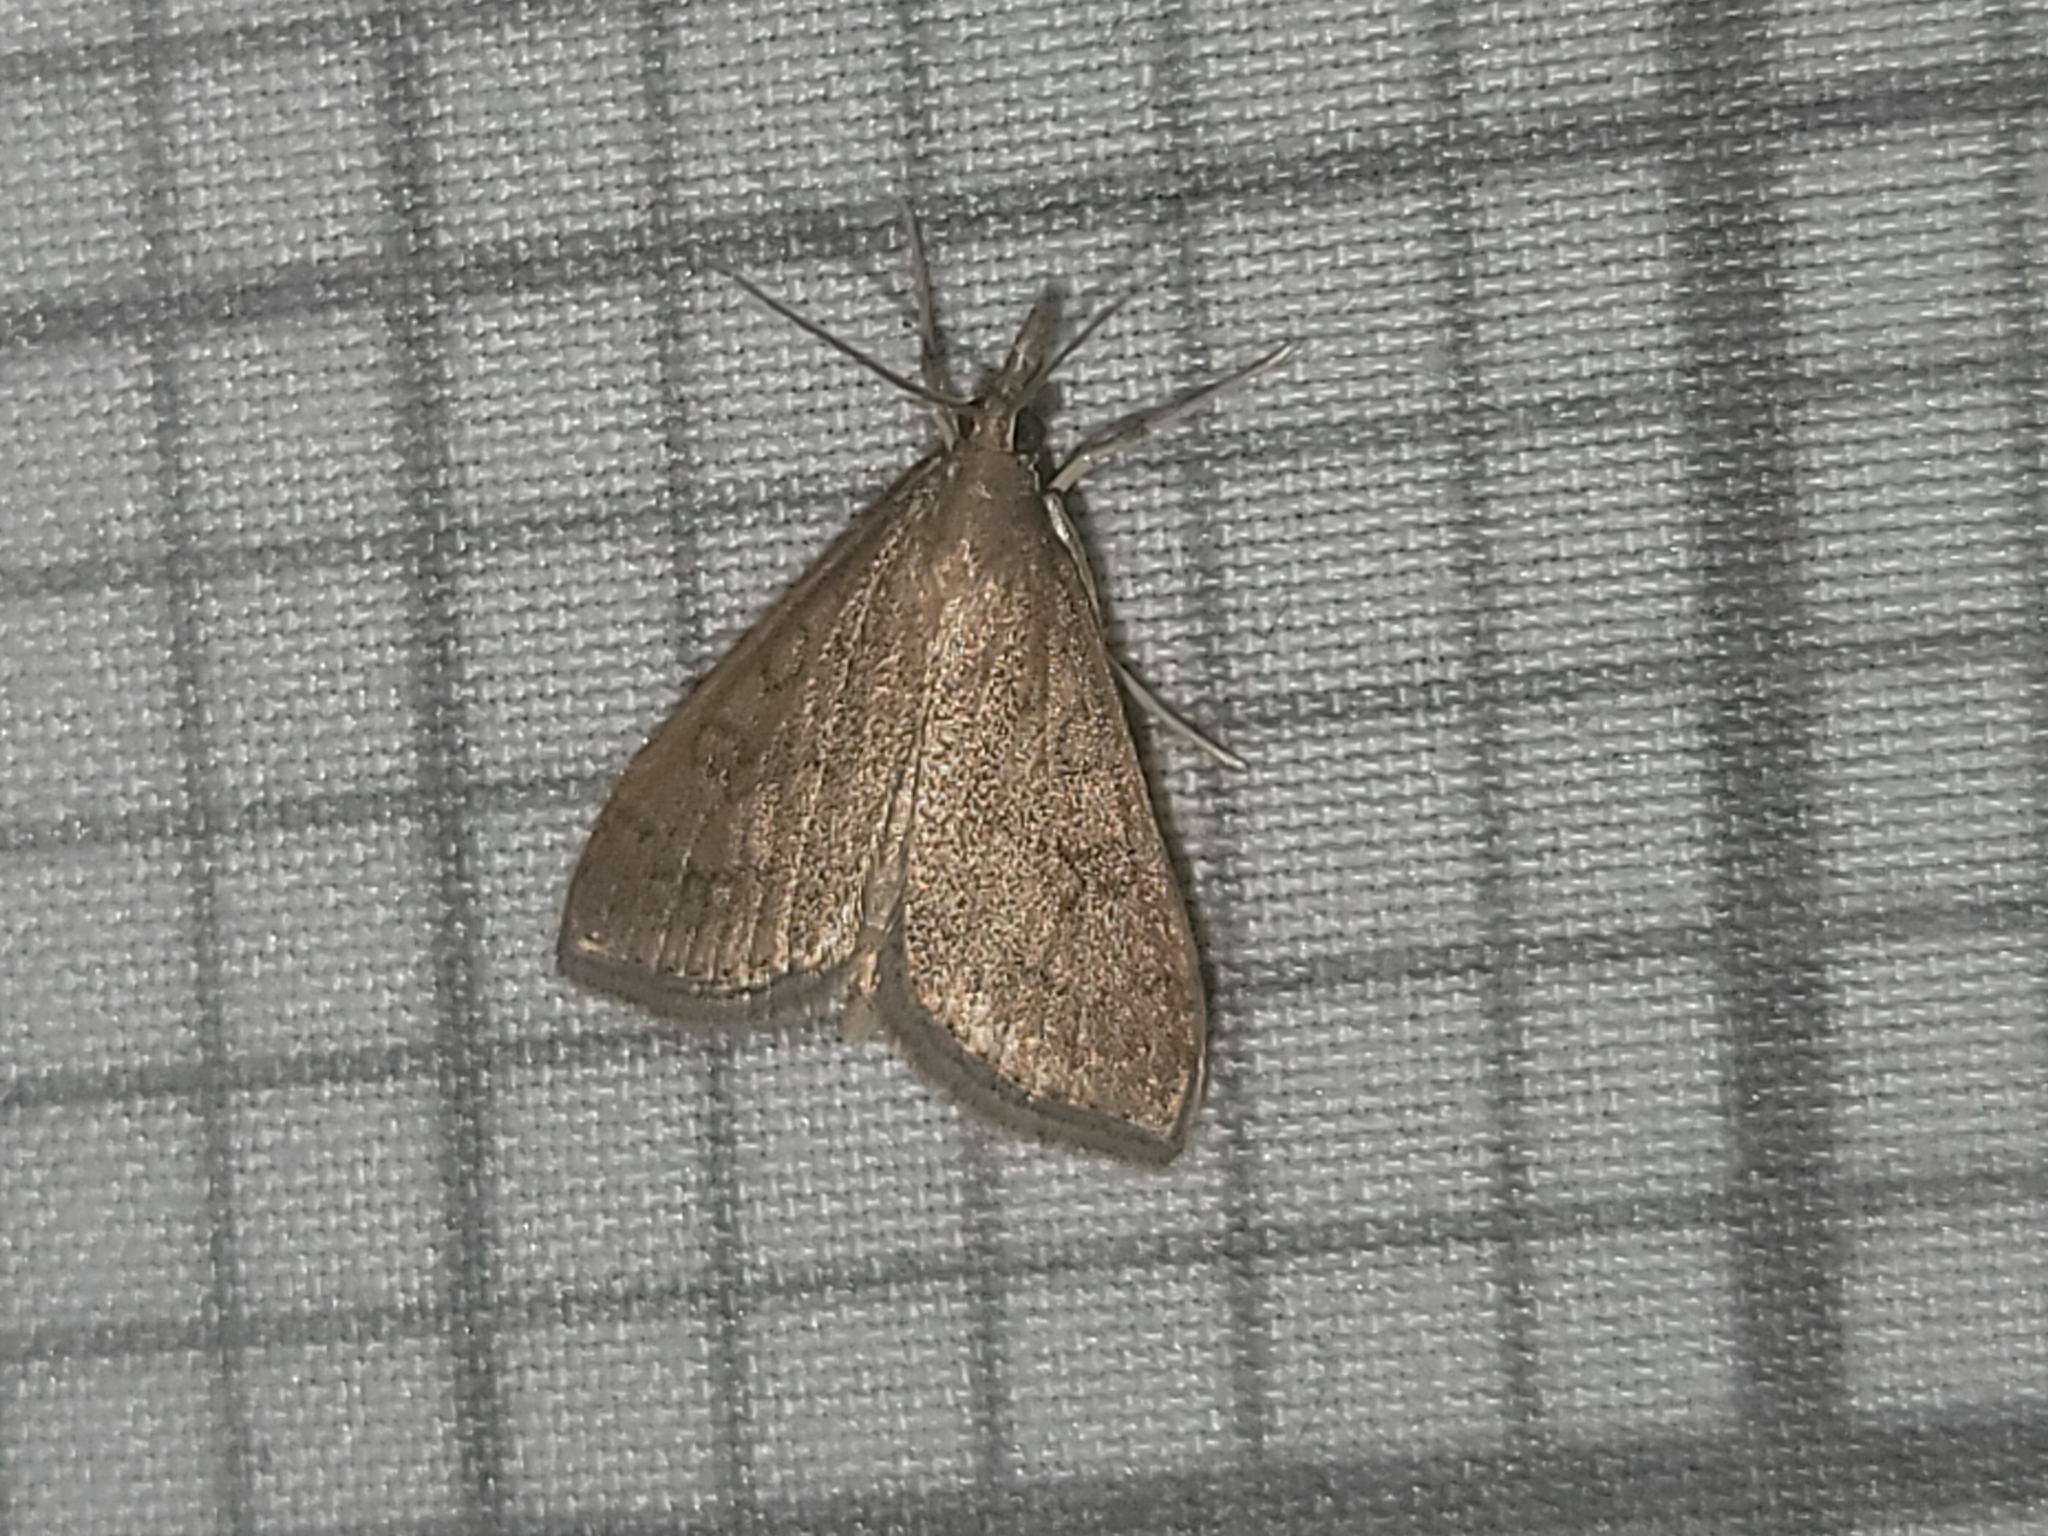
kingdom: Animalia
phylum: Arthropoda
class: Insecta
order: Lepidoptera
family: Crambidae
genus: Udea
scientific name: Udea rubigalis
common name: Celery leaftier moth
